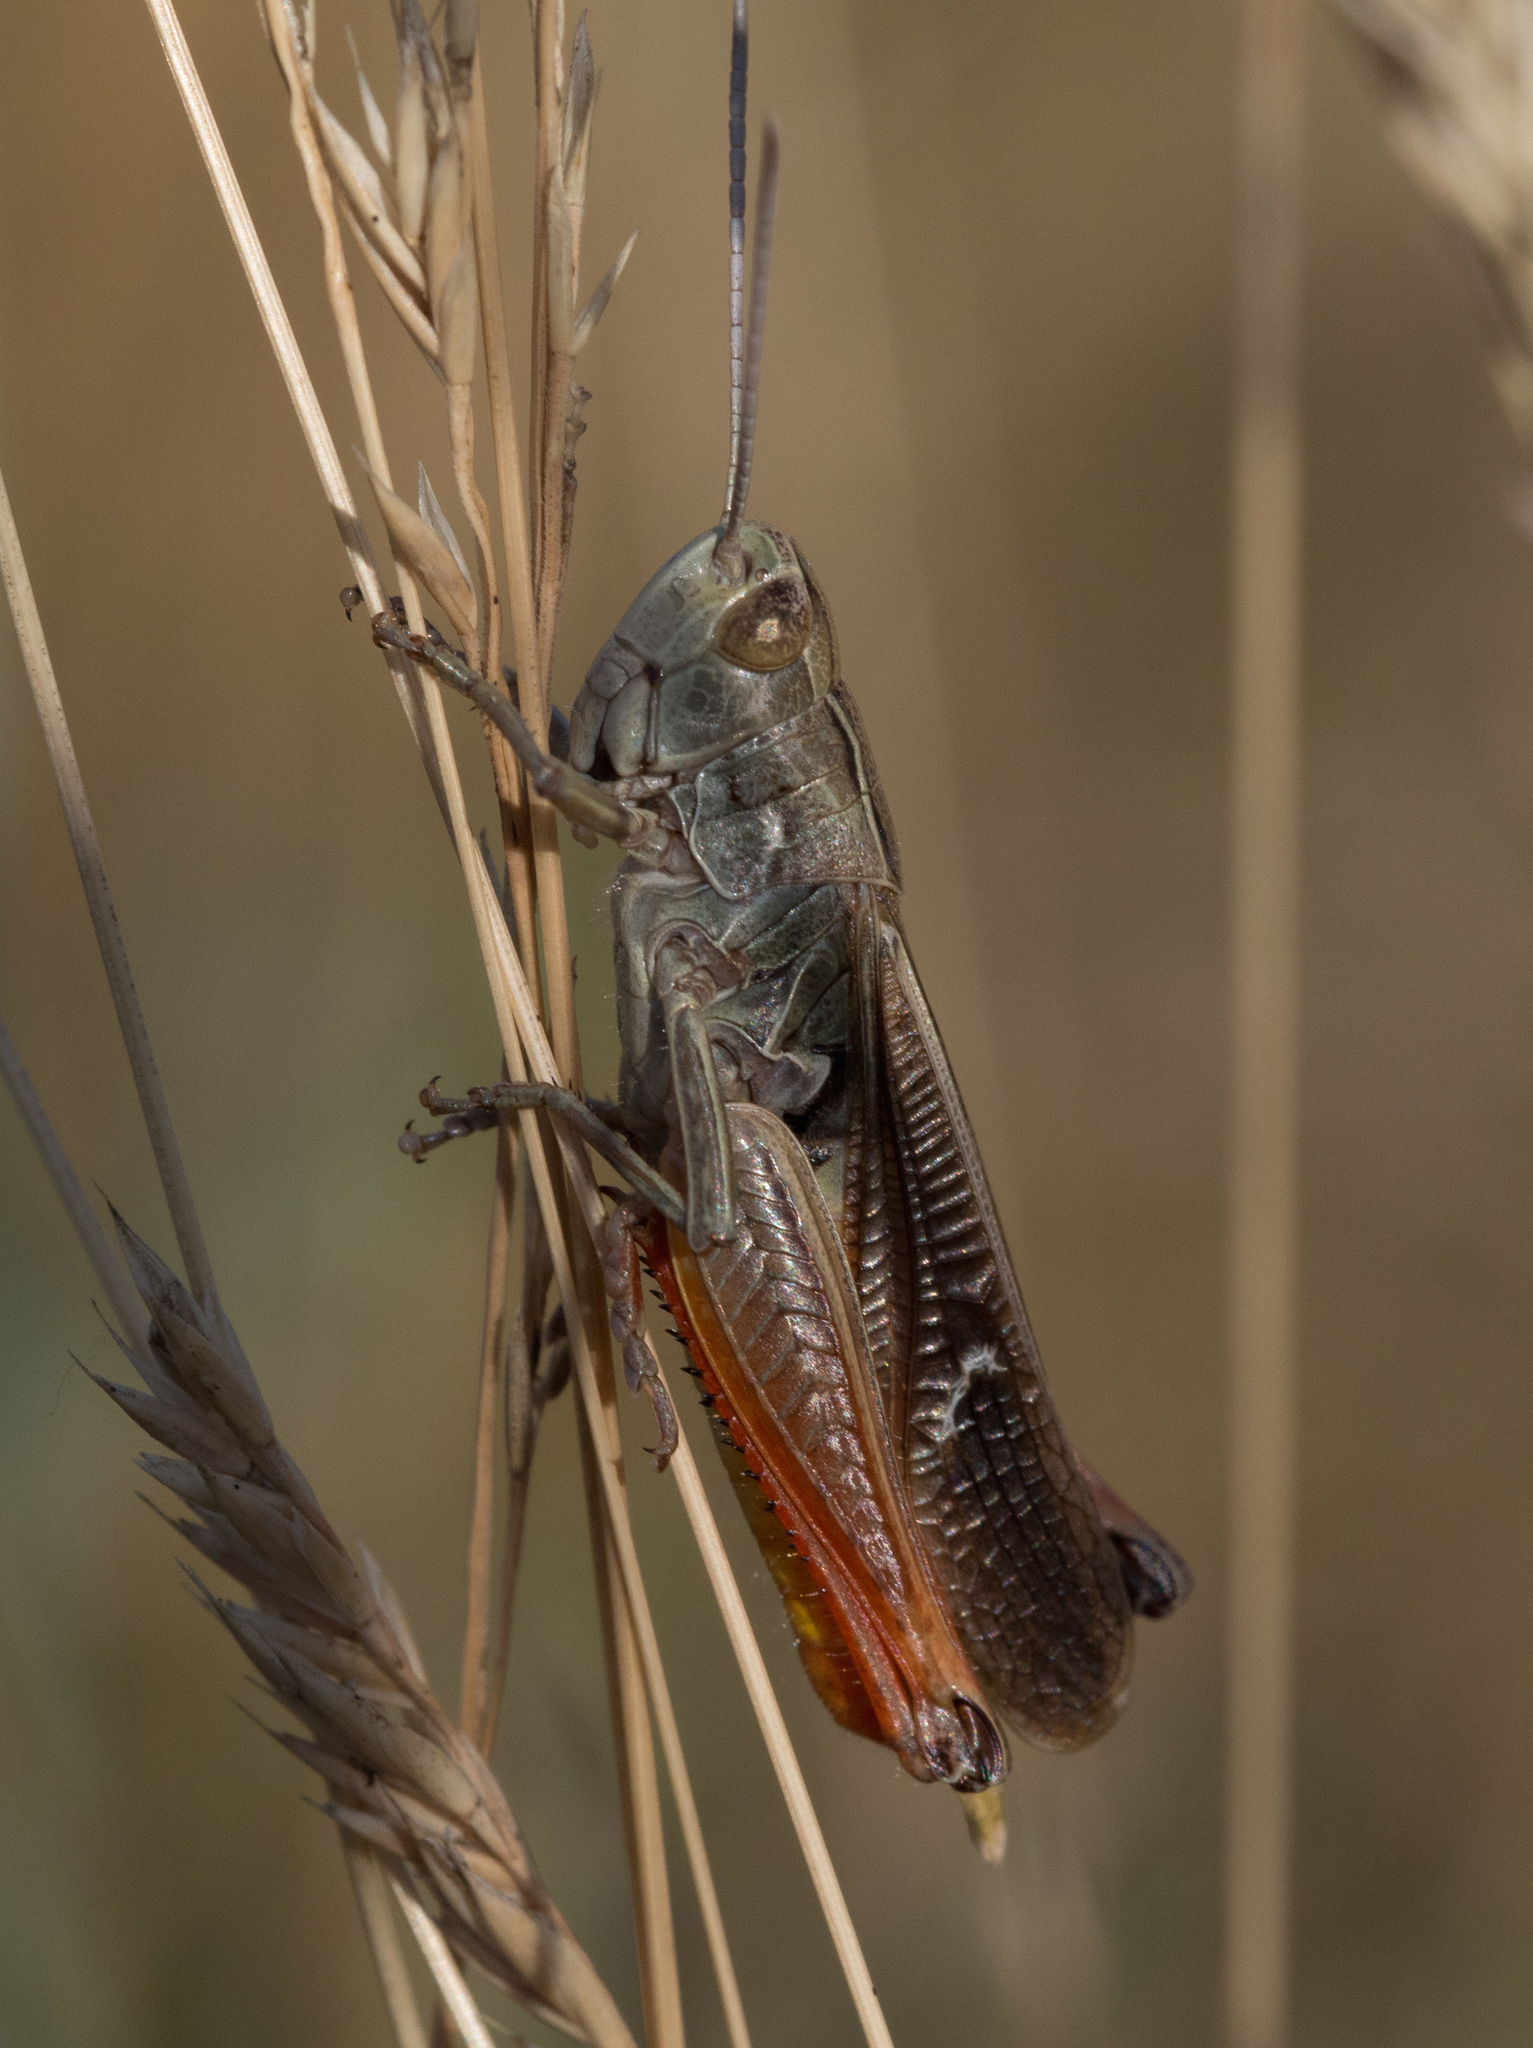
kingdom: Animalia
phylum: Arthropoda
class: Insecta
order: Orthoptera
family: Acrididae
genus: Stenobothrus
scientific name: Stenobothrus lineatus
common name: Stripe-winged grasshopper
